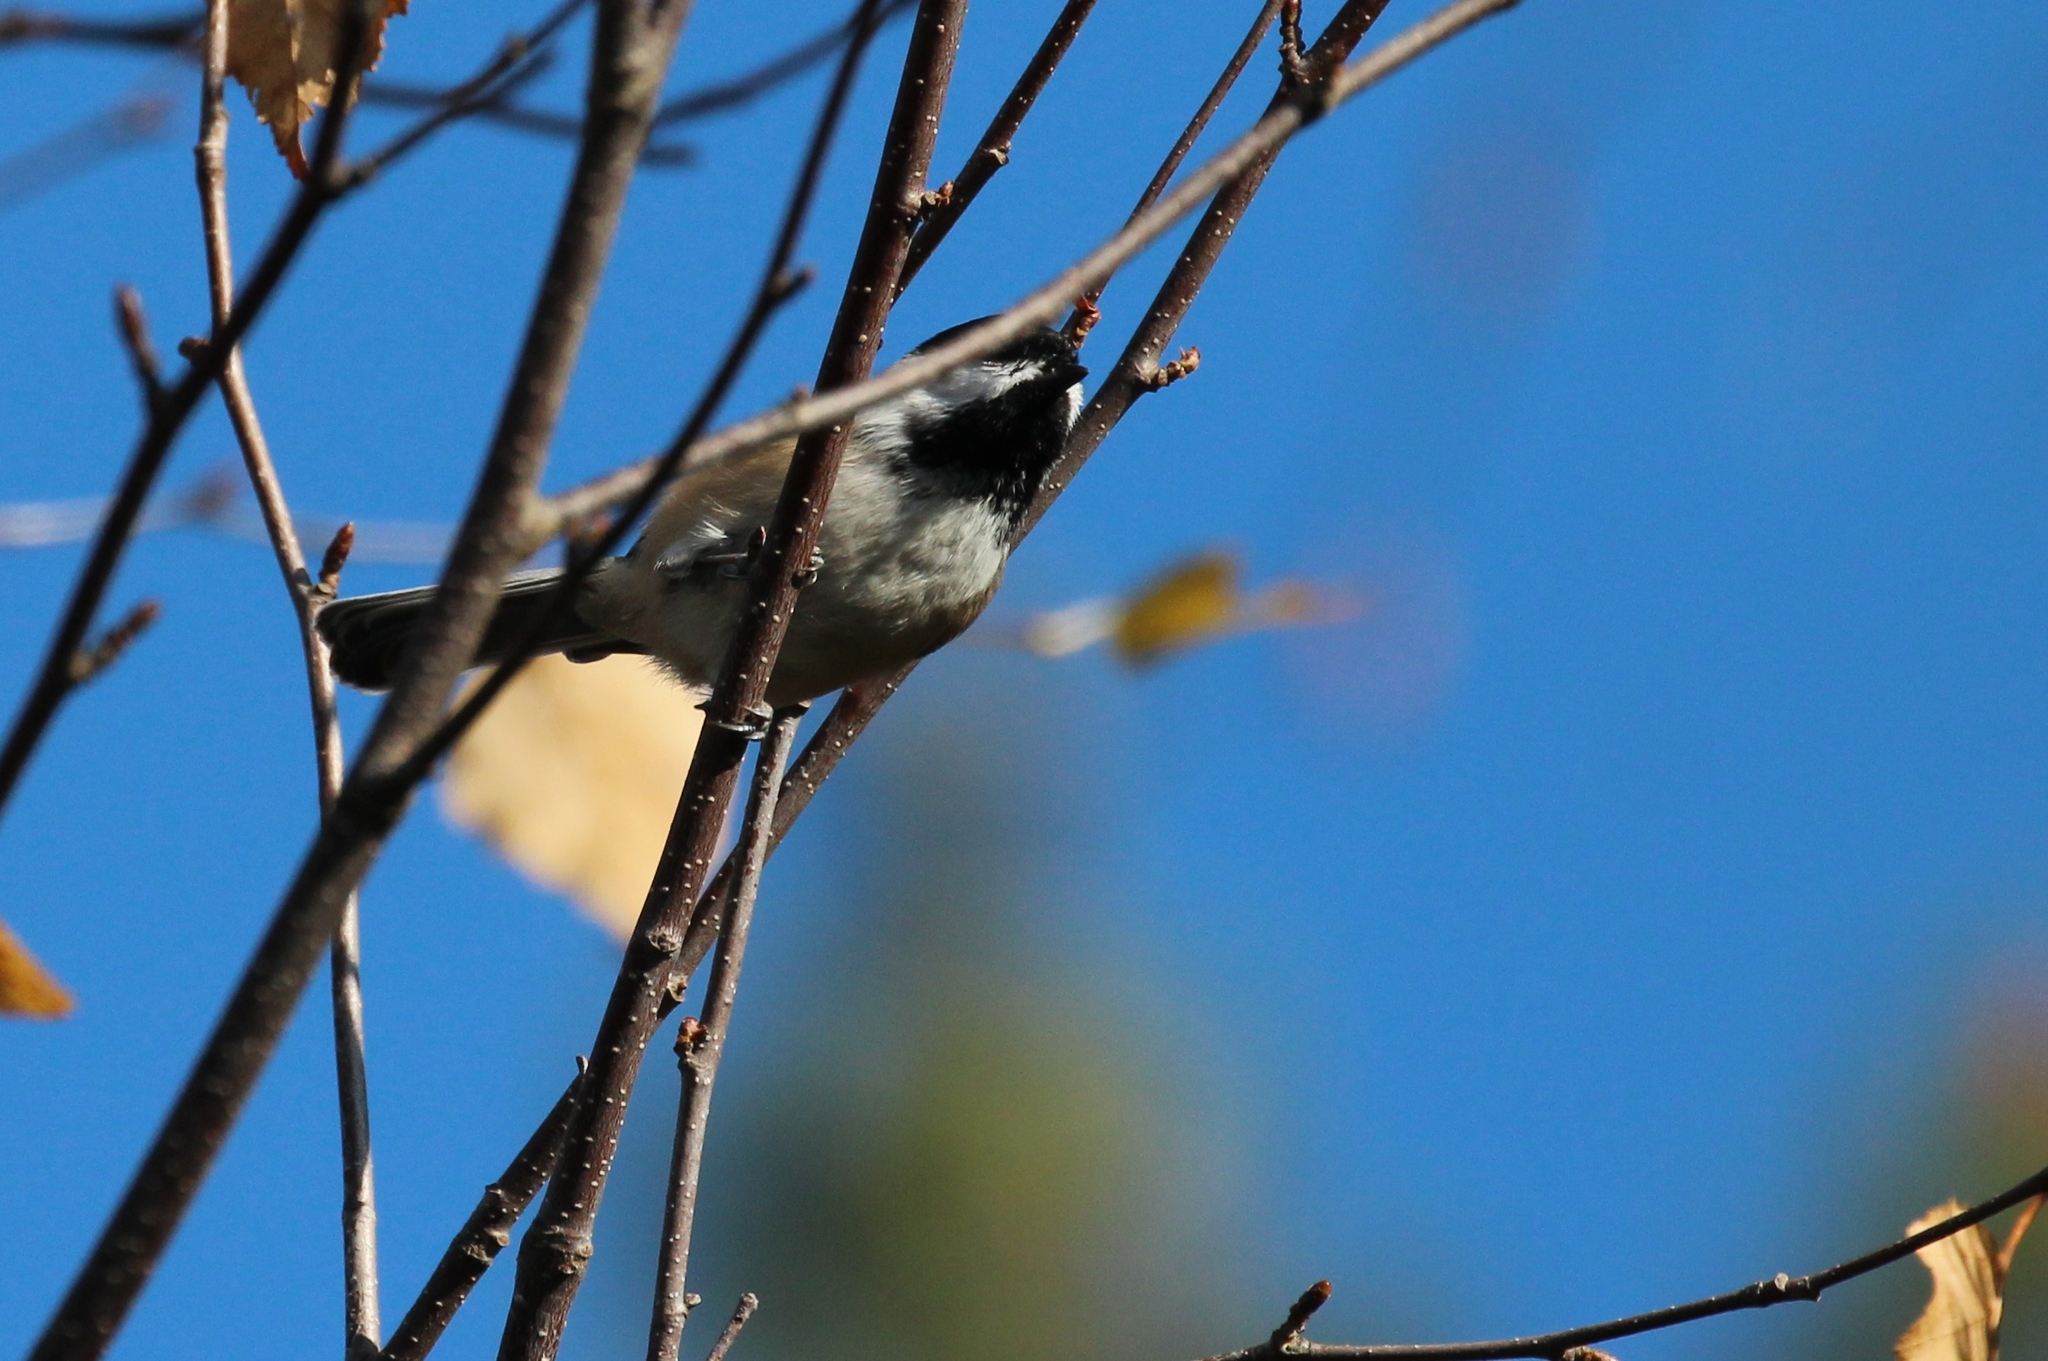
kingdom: Animalia
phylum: Chordata
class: Aves
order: Passeriformes
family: Paridae
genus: Poecile
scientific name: Poecile atricapillus
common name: Black-capped chickadee
